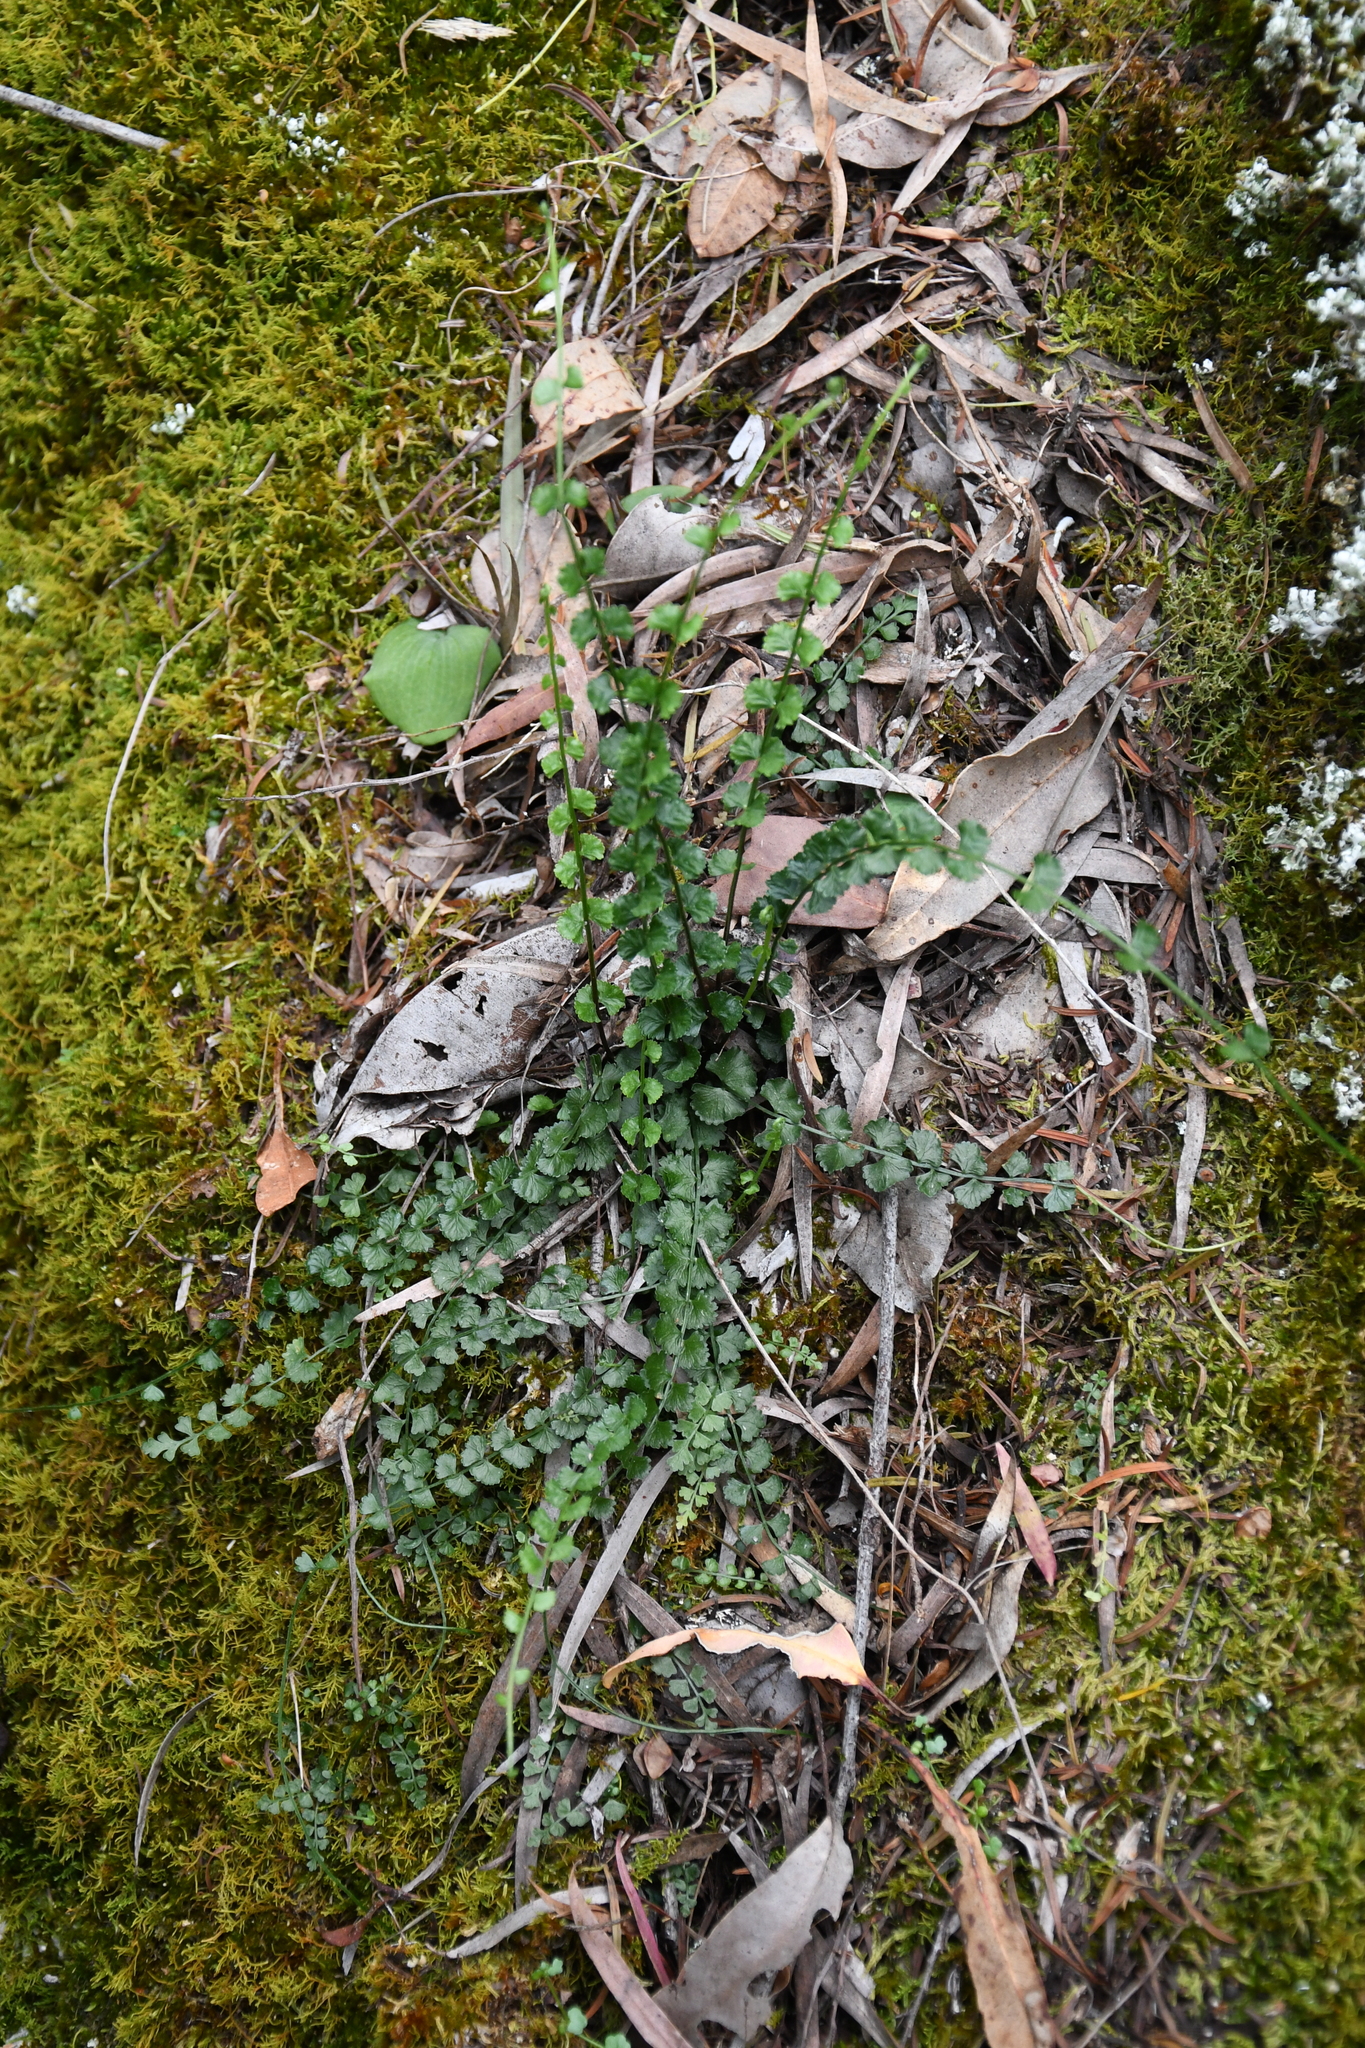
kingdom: Plantae
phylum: Tracheophyta
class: Polypodiopsida
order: Polypodiales
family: Aspleniaceae
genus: Asplenium
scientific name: Asplenium flabellifolium
